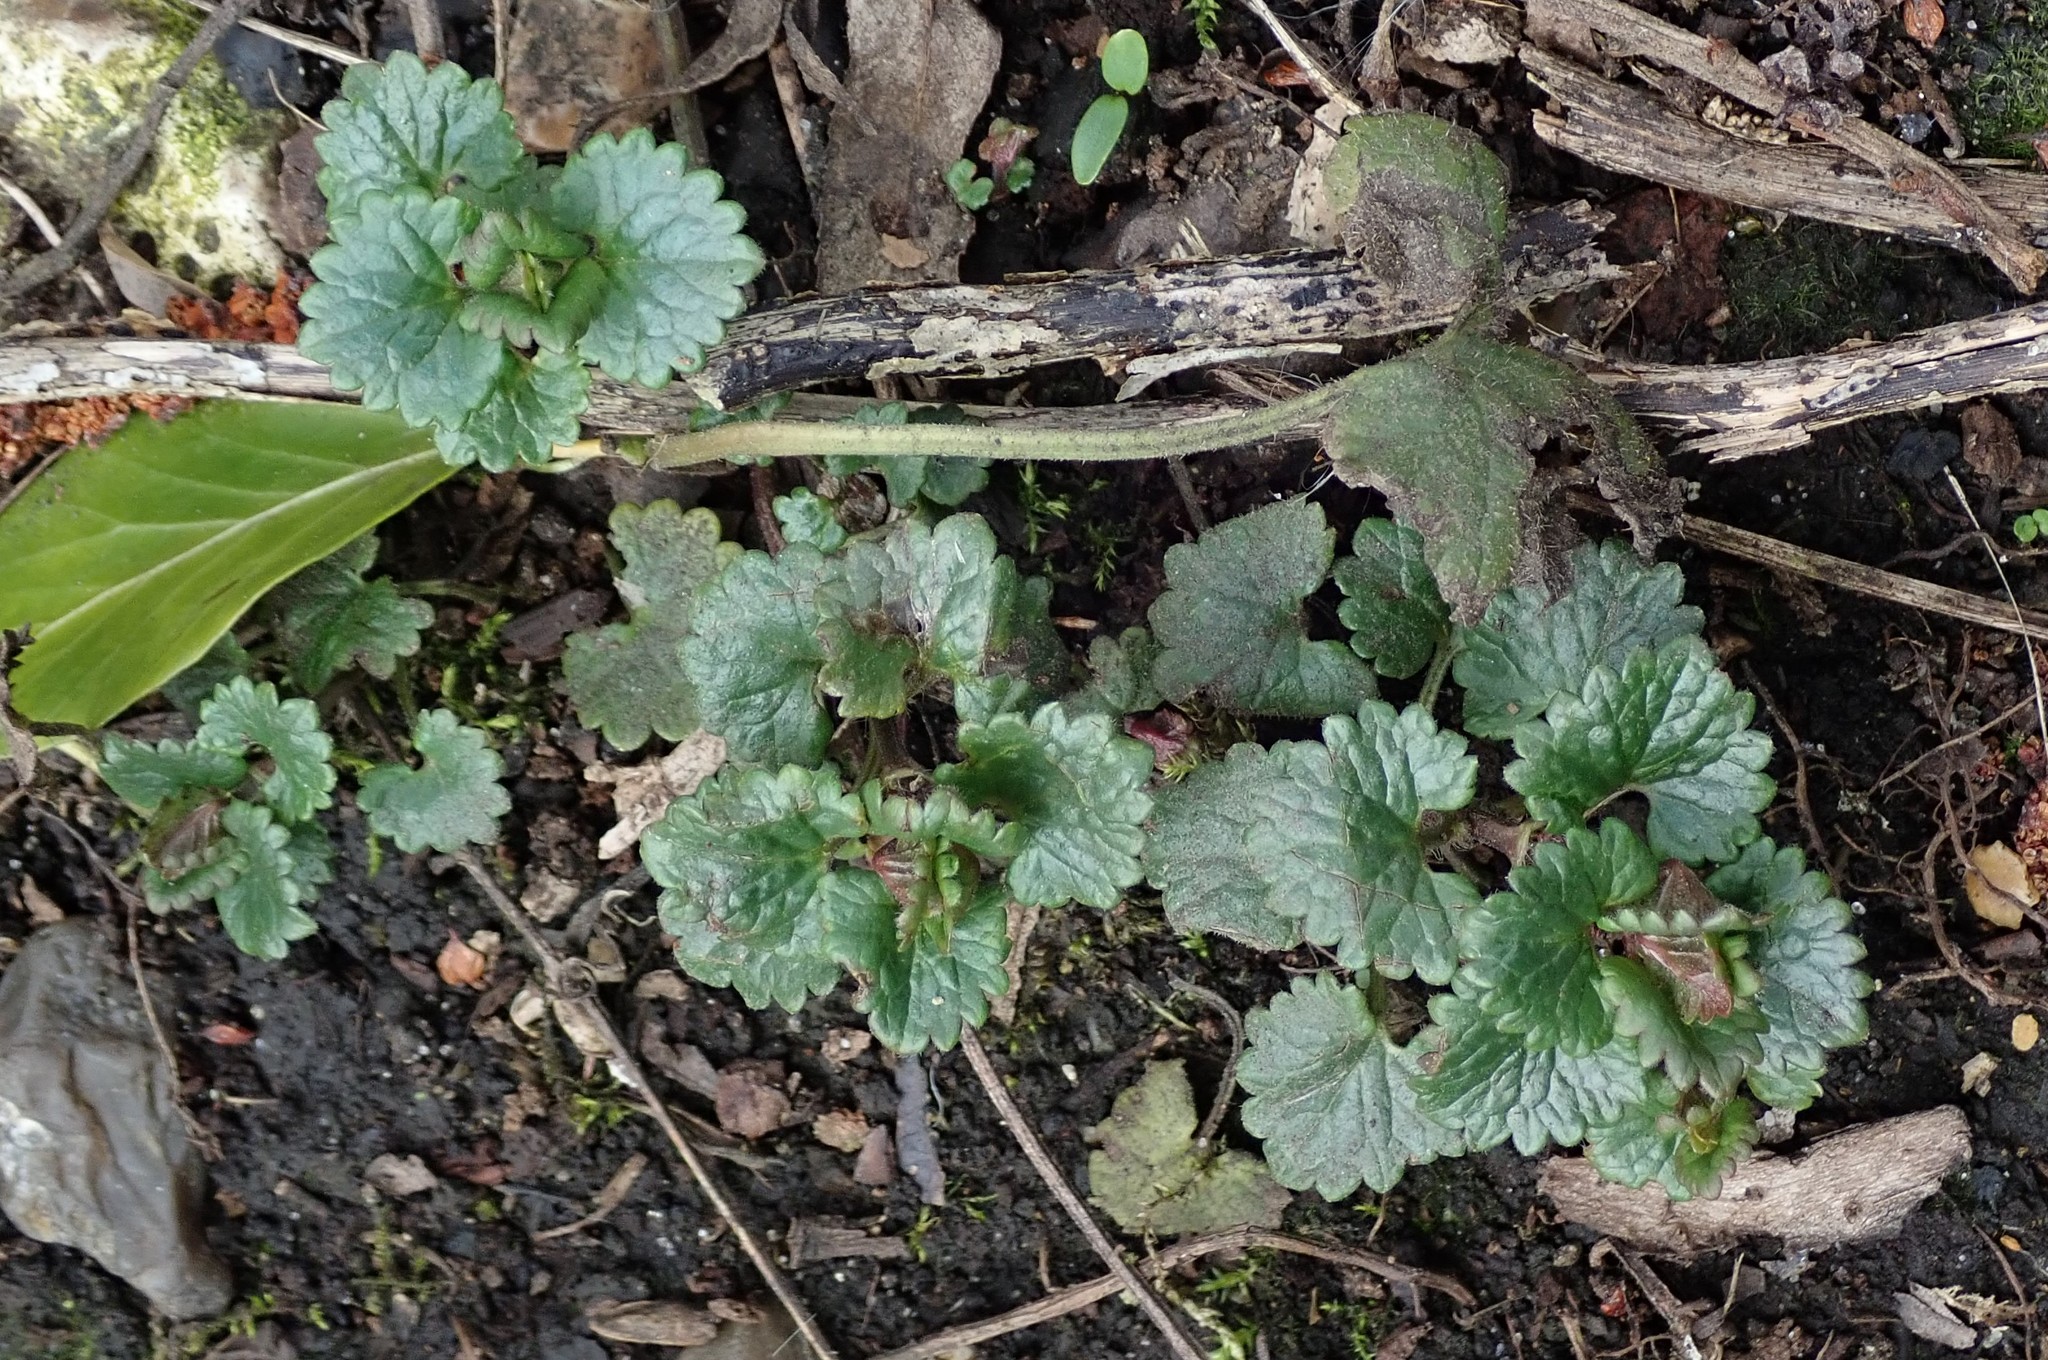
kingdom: Plantae
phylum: Tracheophyta
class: Magnoliopsida
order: Lamiales
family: Lamiaceae
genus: Glechoma
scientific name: Glechoma hederacea
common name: Ground ivy
